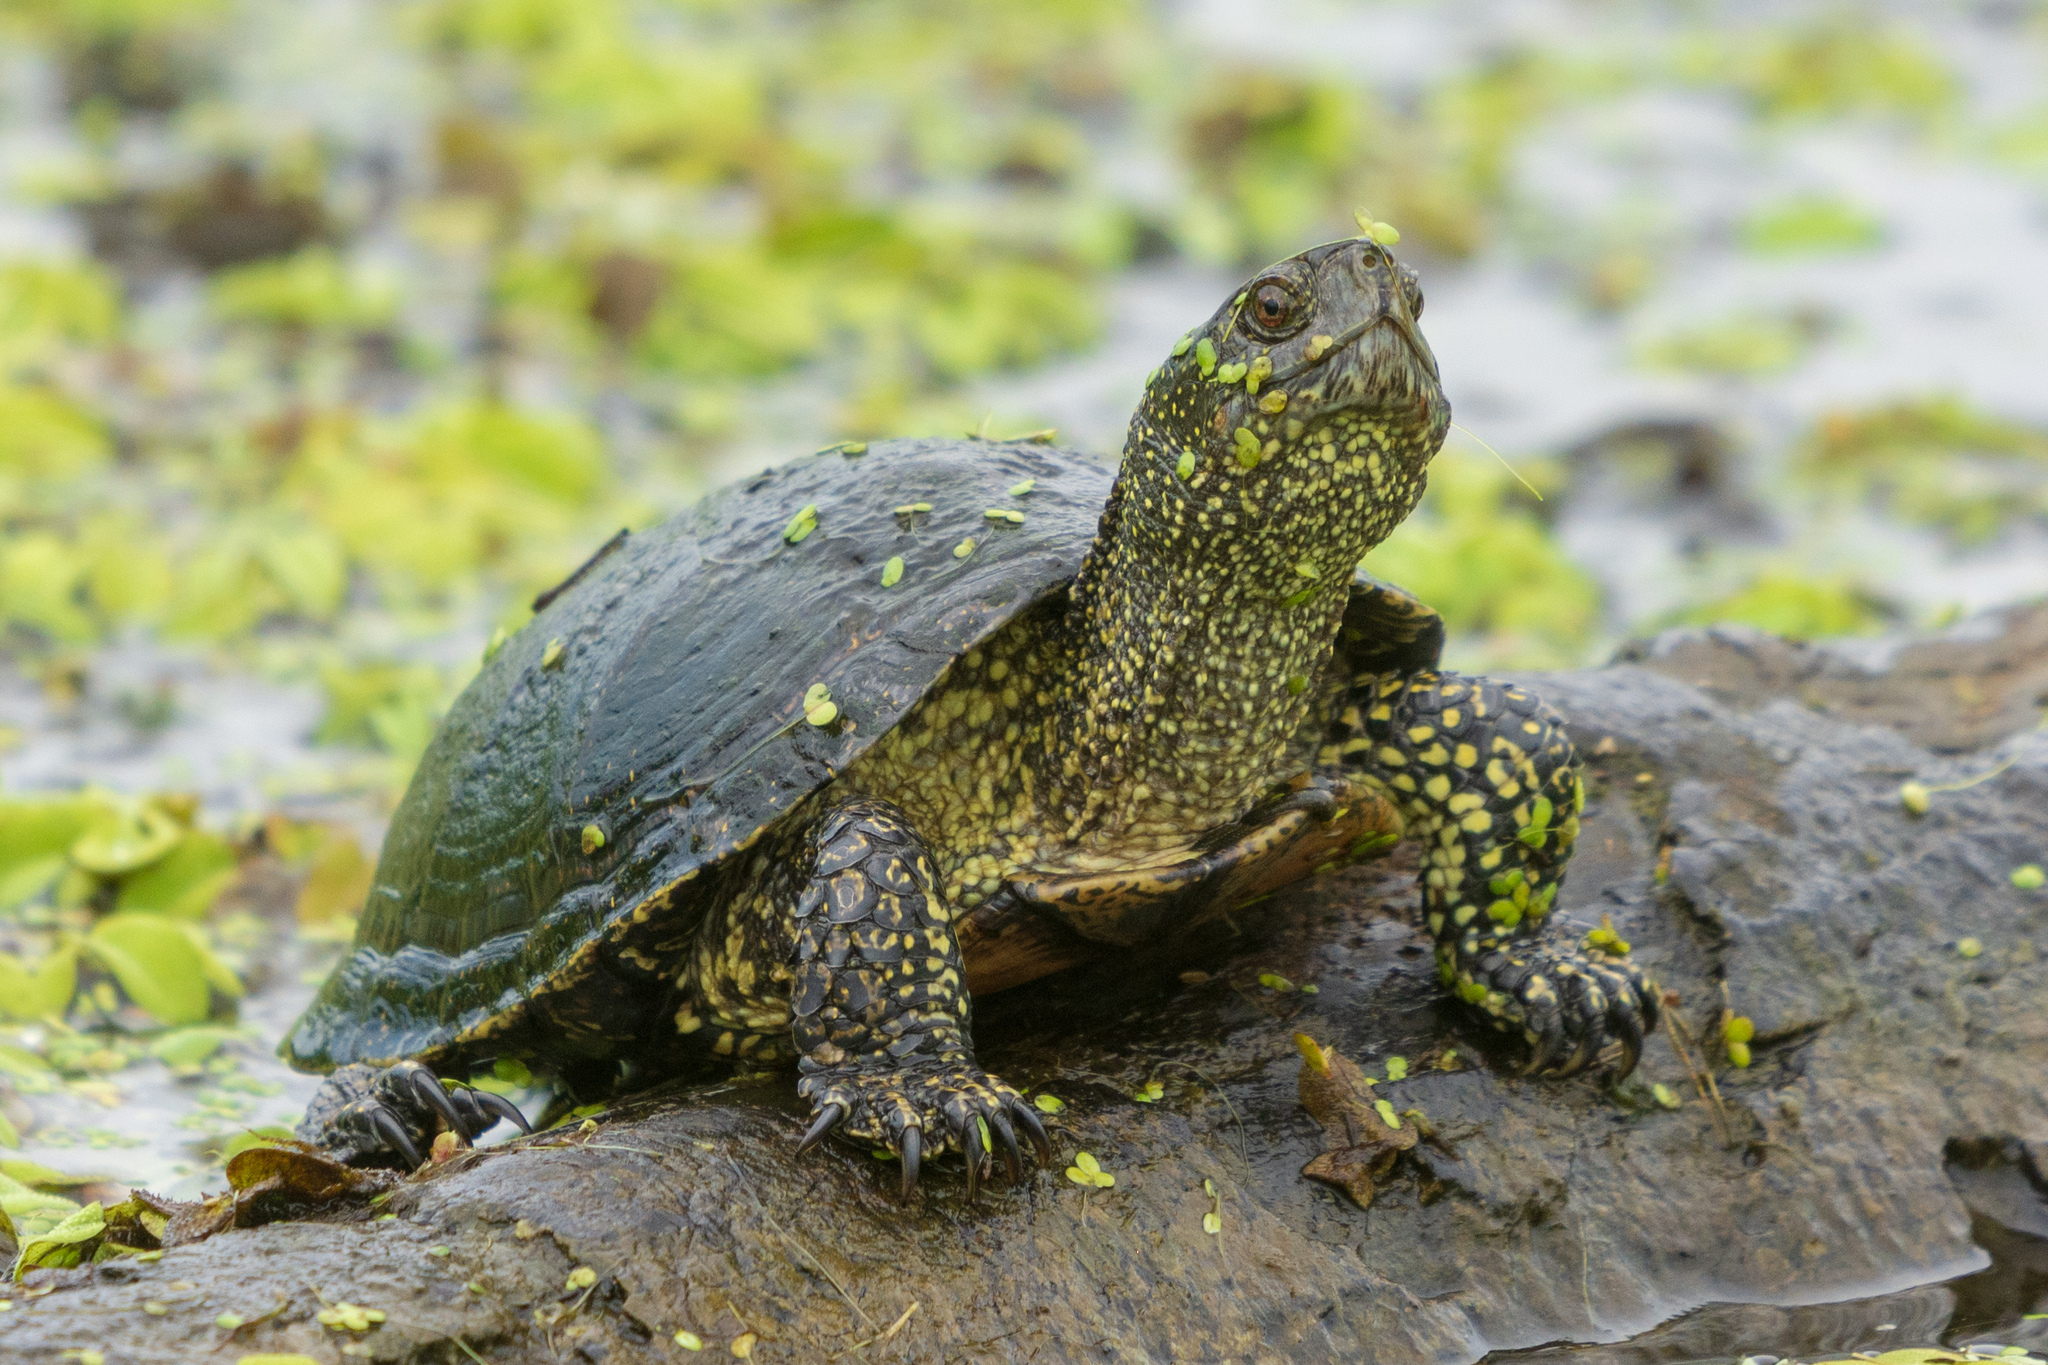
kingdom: Animalia
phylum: Chordata
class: Testudines
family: Emydidae
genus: Emys
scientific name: Emys orbicularis
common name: European pond turtle
